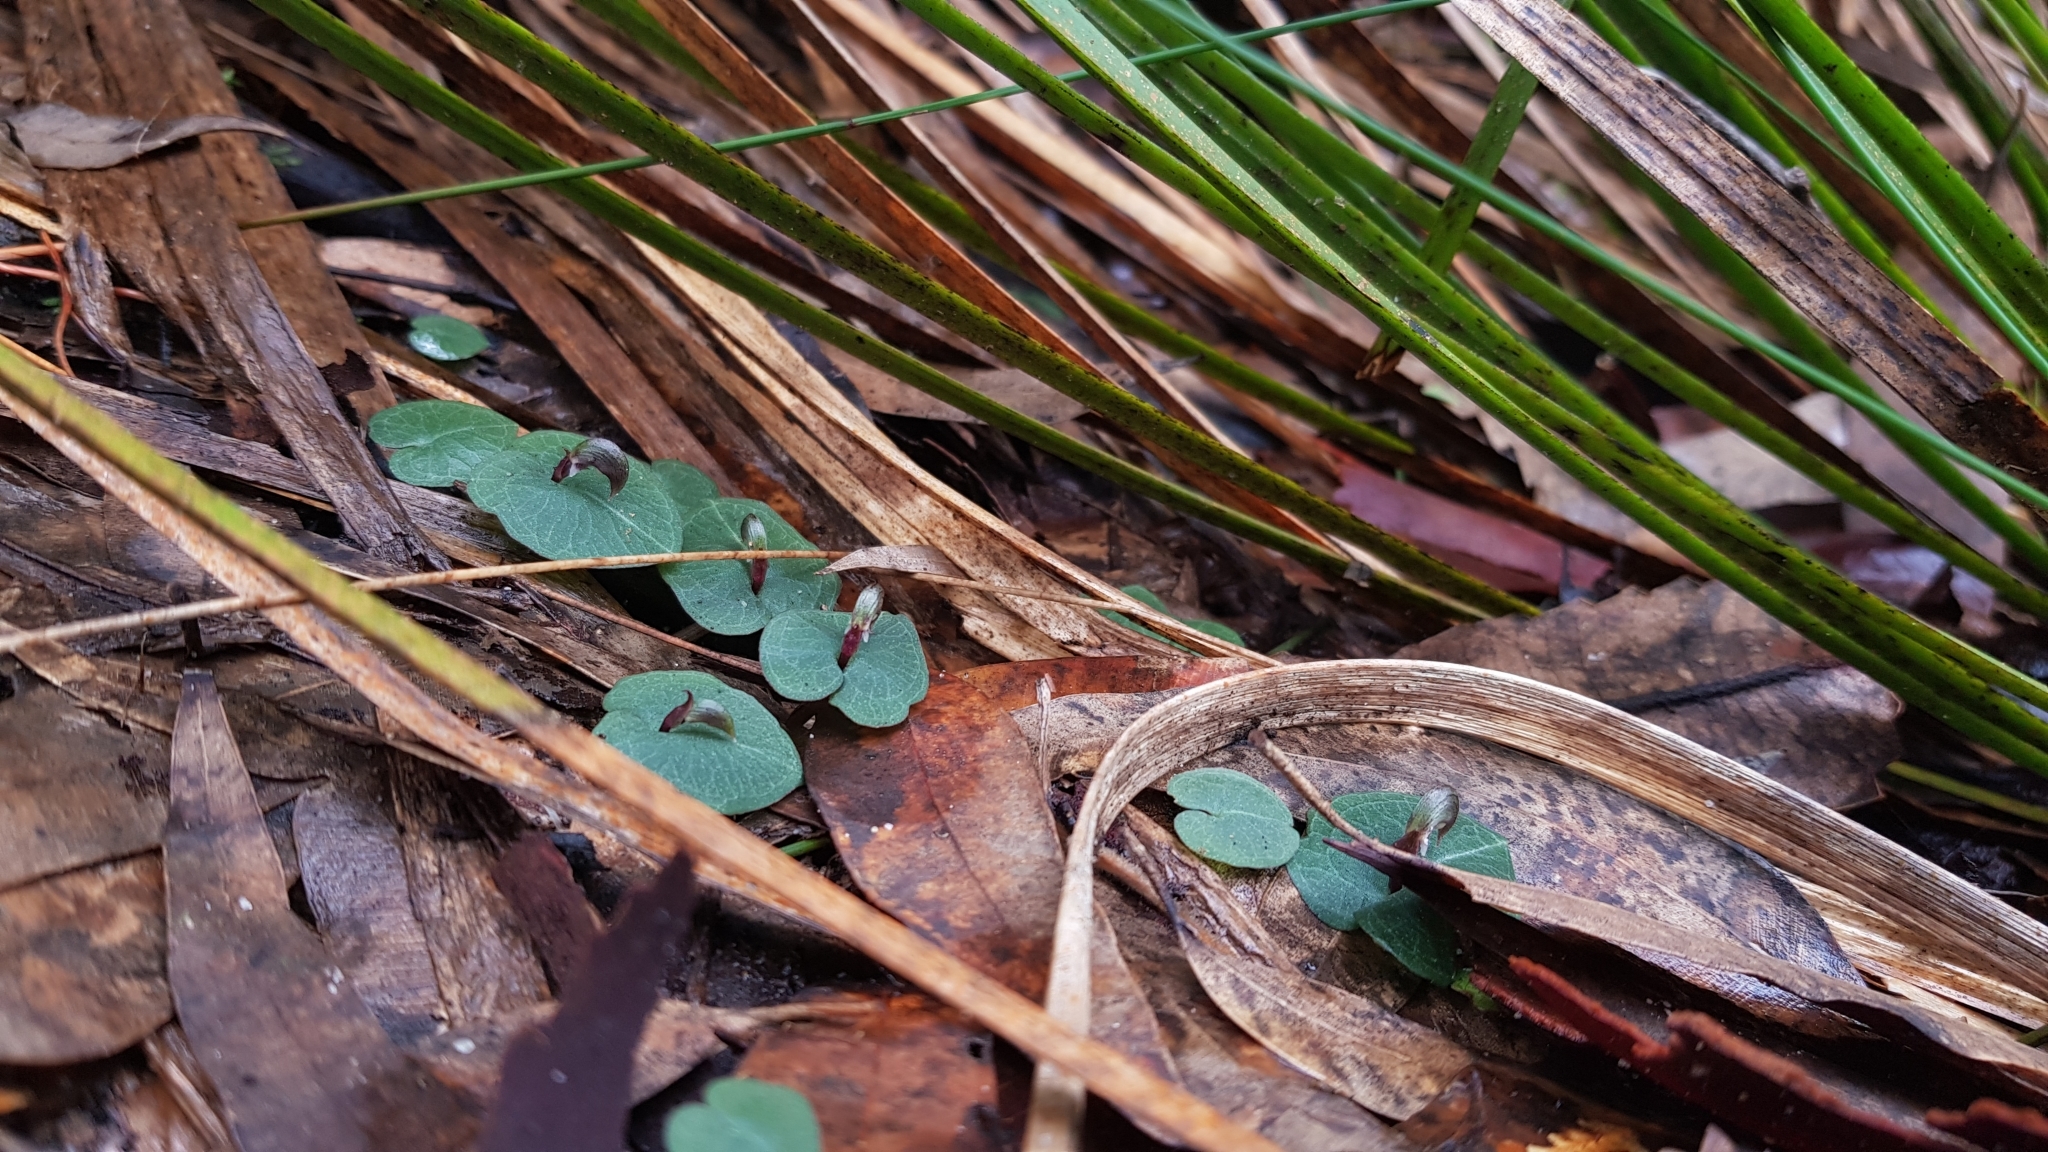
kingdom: Plantae
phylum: Tracheophyta
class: Liliopsida
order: Asparagales
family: Orchidaceae
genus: Corybas
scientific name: Corybas aconitiflorus
